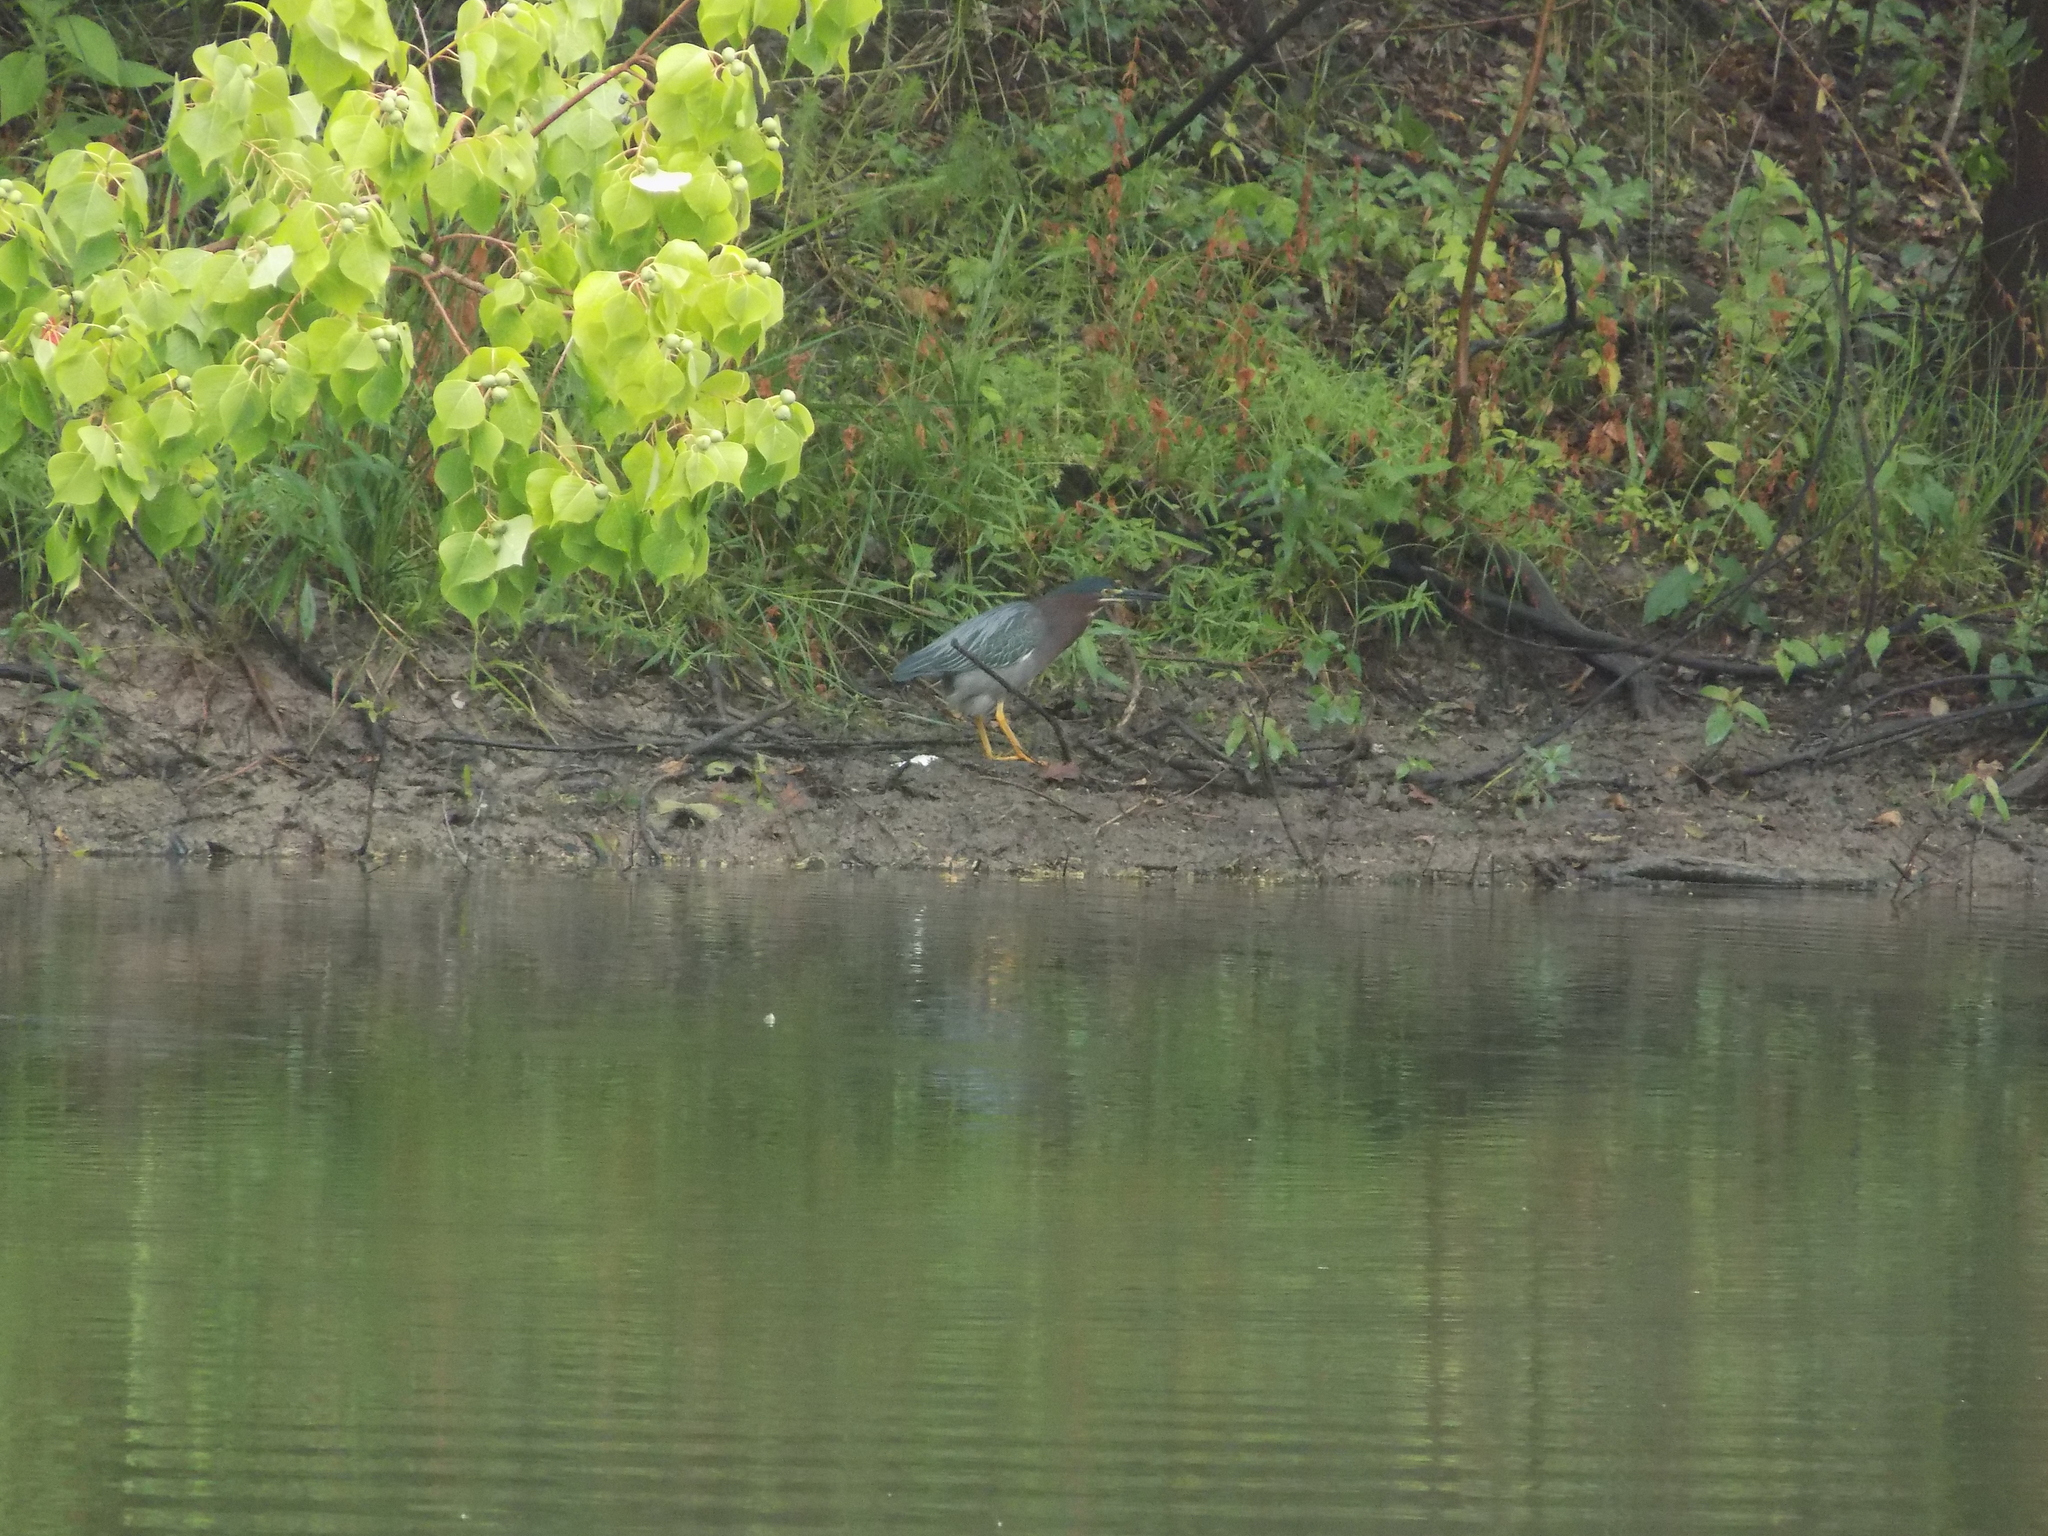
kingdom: Animalia
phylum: Chordata
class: Aves
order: Pelecaniformes
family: Ardeidae
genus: Butorides
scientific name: Butorides virescens
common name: Green heron
